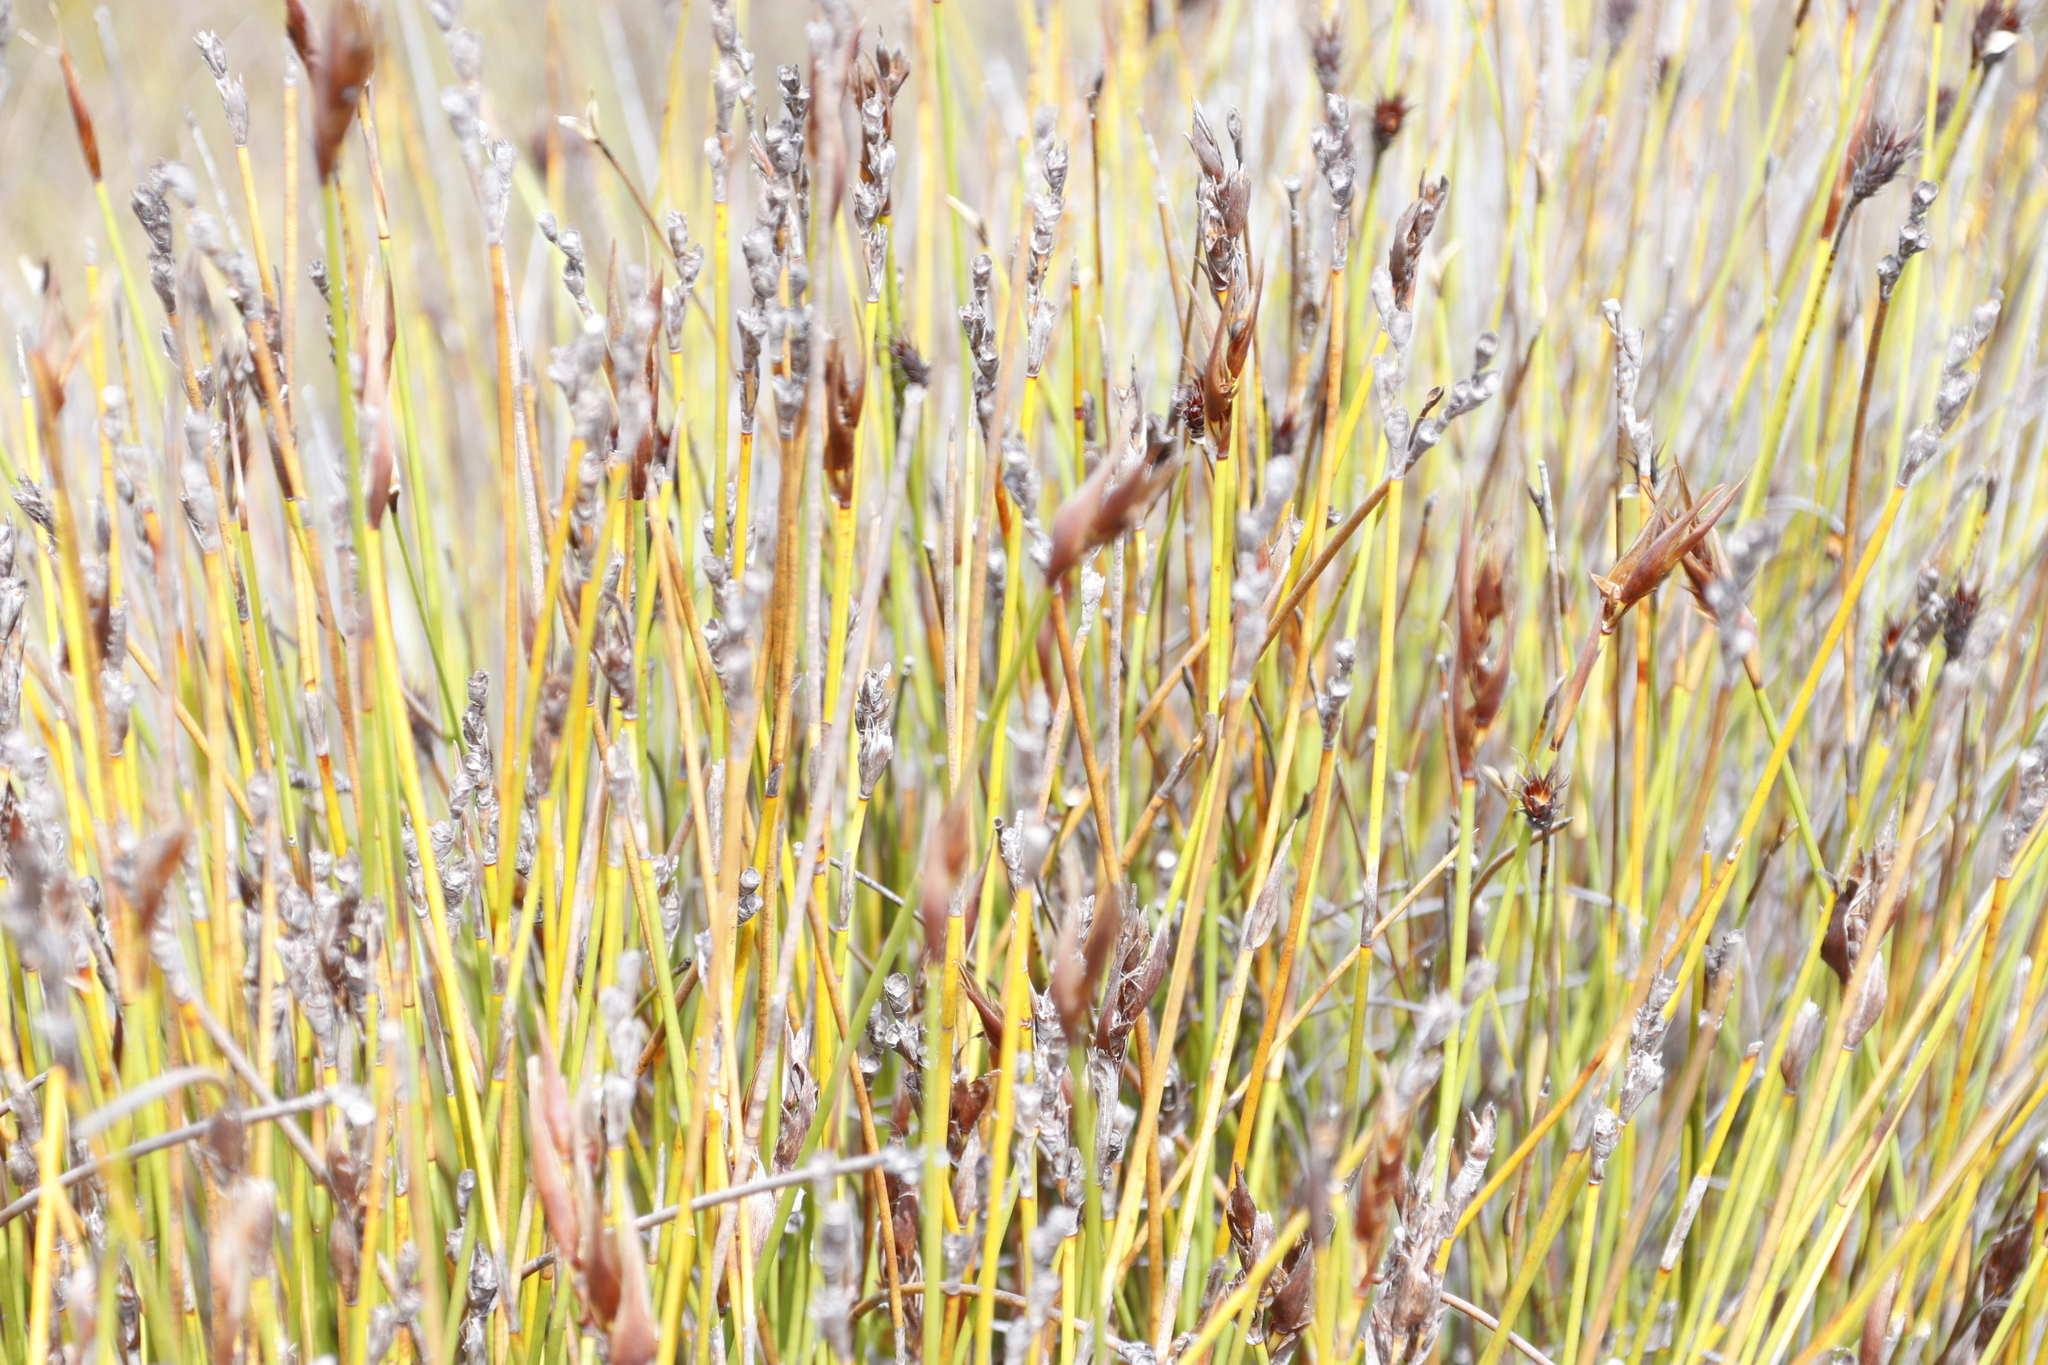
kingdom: Plantae
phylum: Tracheophyta
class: Liliopsida
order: Poales
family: Restionaceae
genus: Hypodiscus
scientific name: Hypodiscus argenteus
